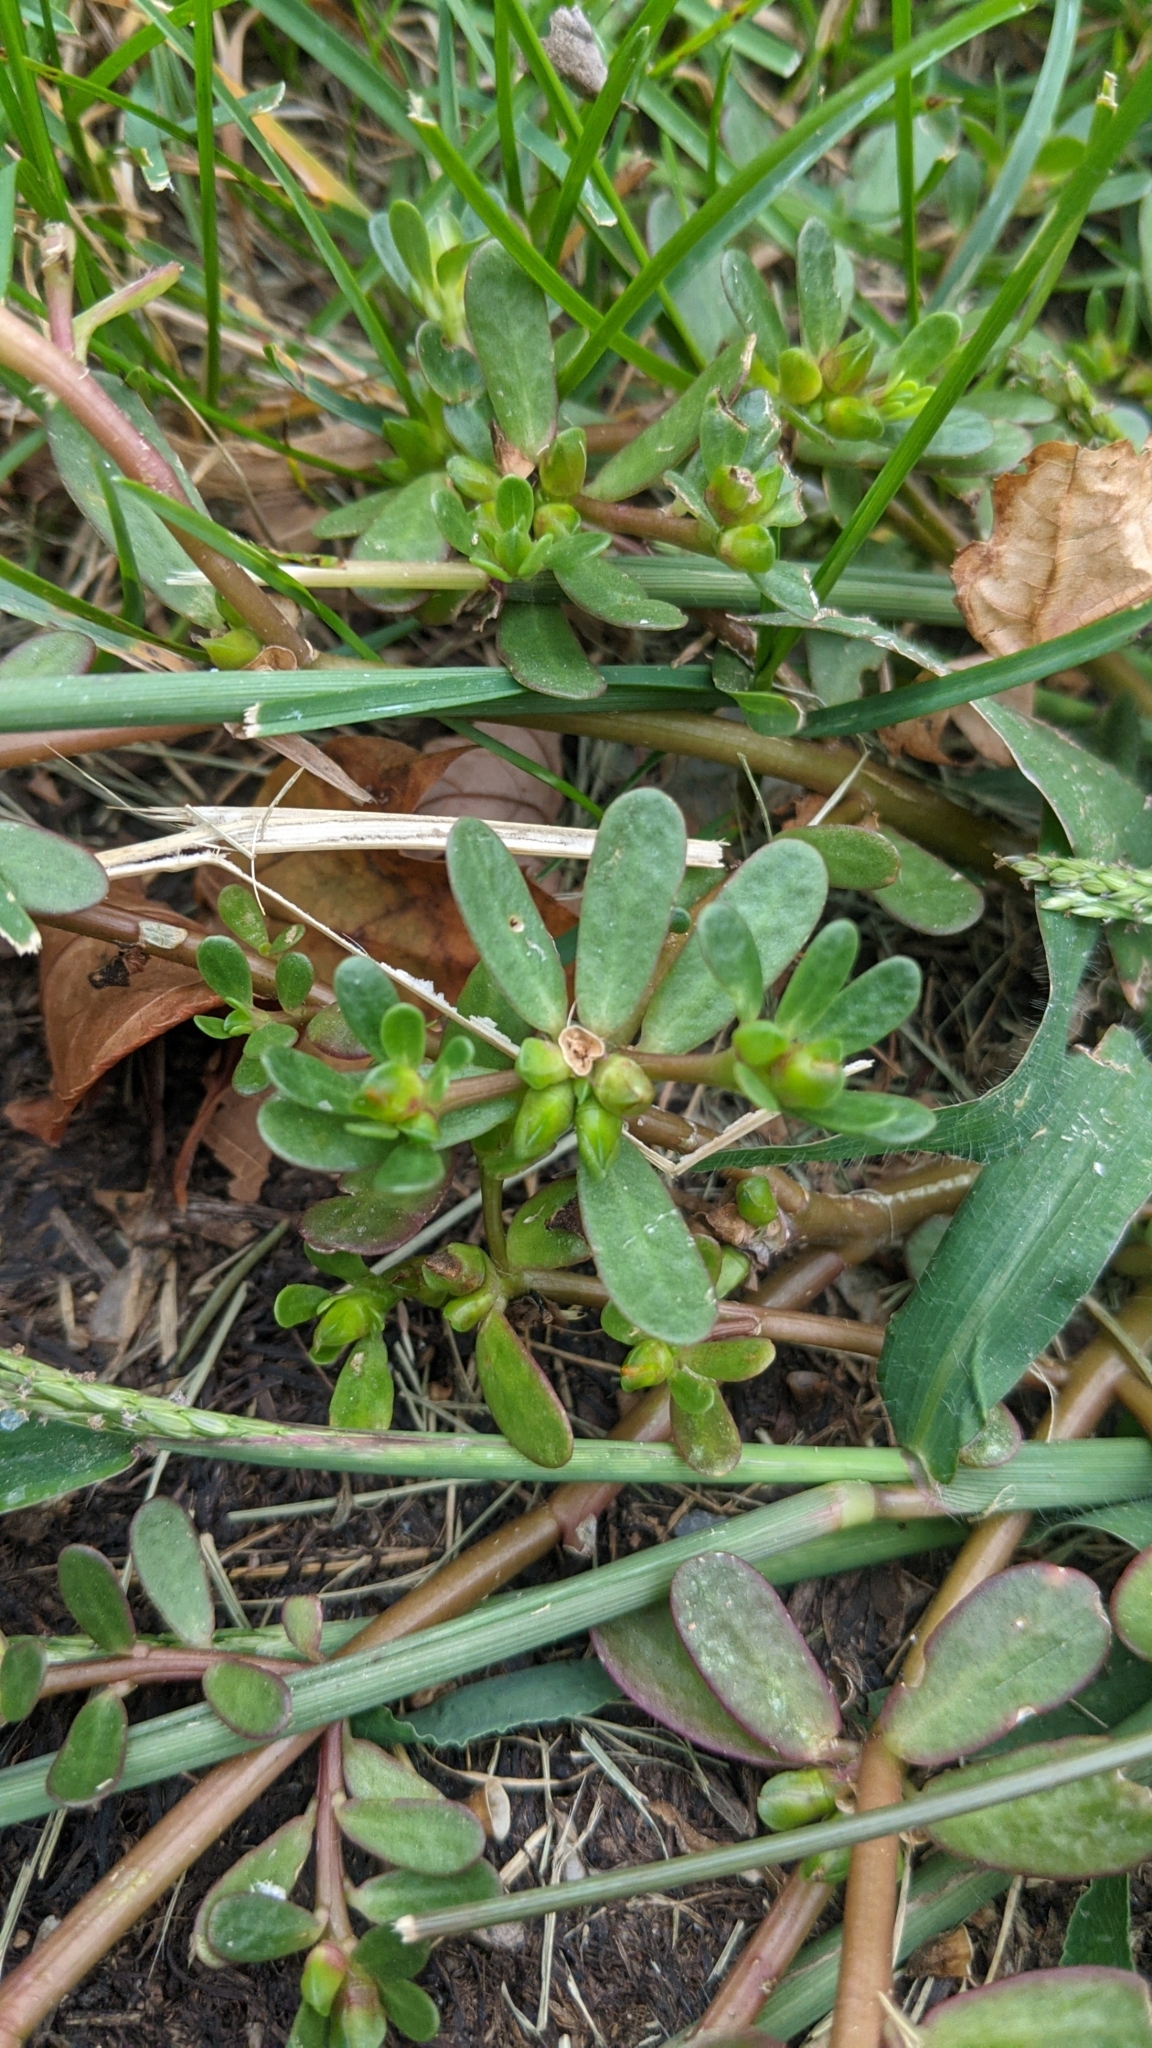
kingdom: Plantae
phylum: Tracheophyta
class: Magnoliopsida
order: Caryophyllales
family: Portulacaceae
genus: Portulaca
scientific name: Portulaca oleracea
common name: Common purslane
